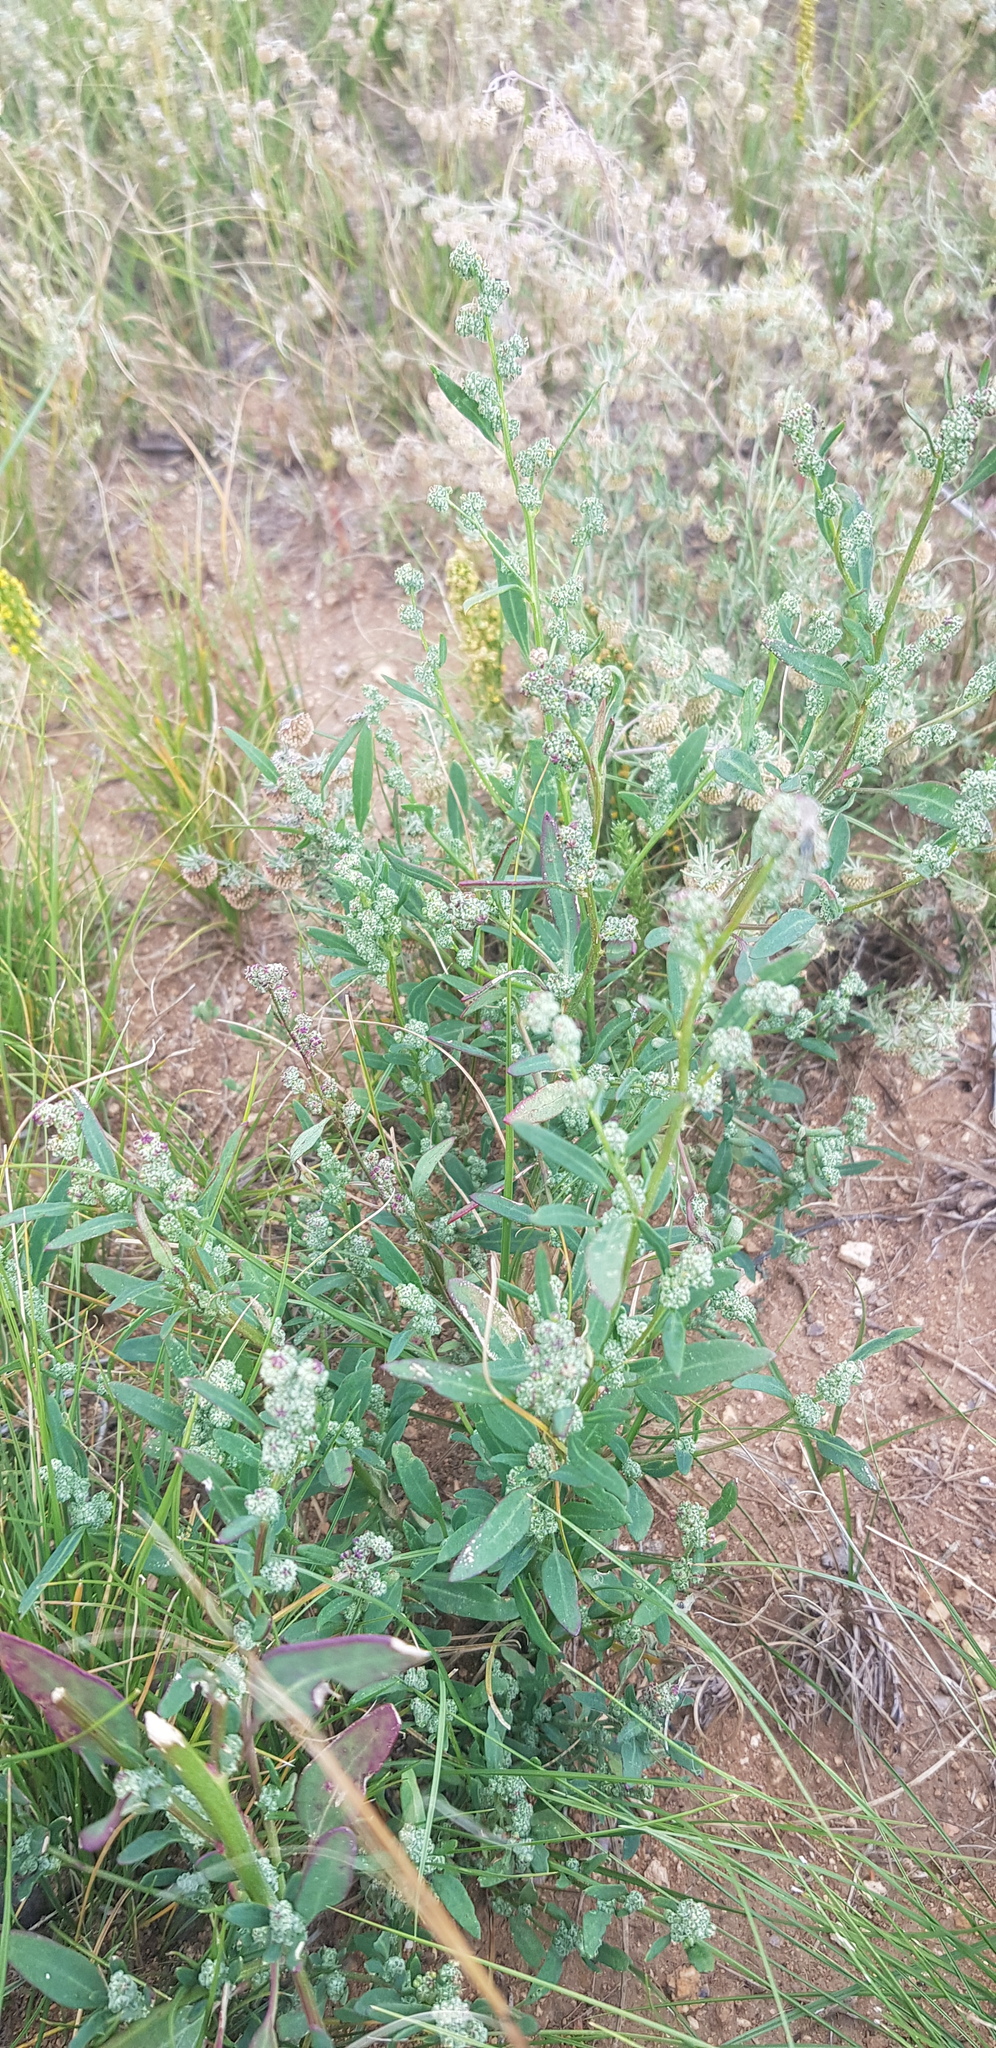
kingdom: Plantae
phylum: Tracheophyta
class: Magnoliopsida
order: Caryophyllales
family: Amaranthaceae
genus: Chenopodium
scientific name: Chenopodium album
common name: Fat-hen
